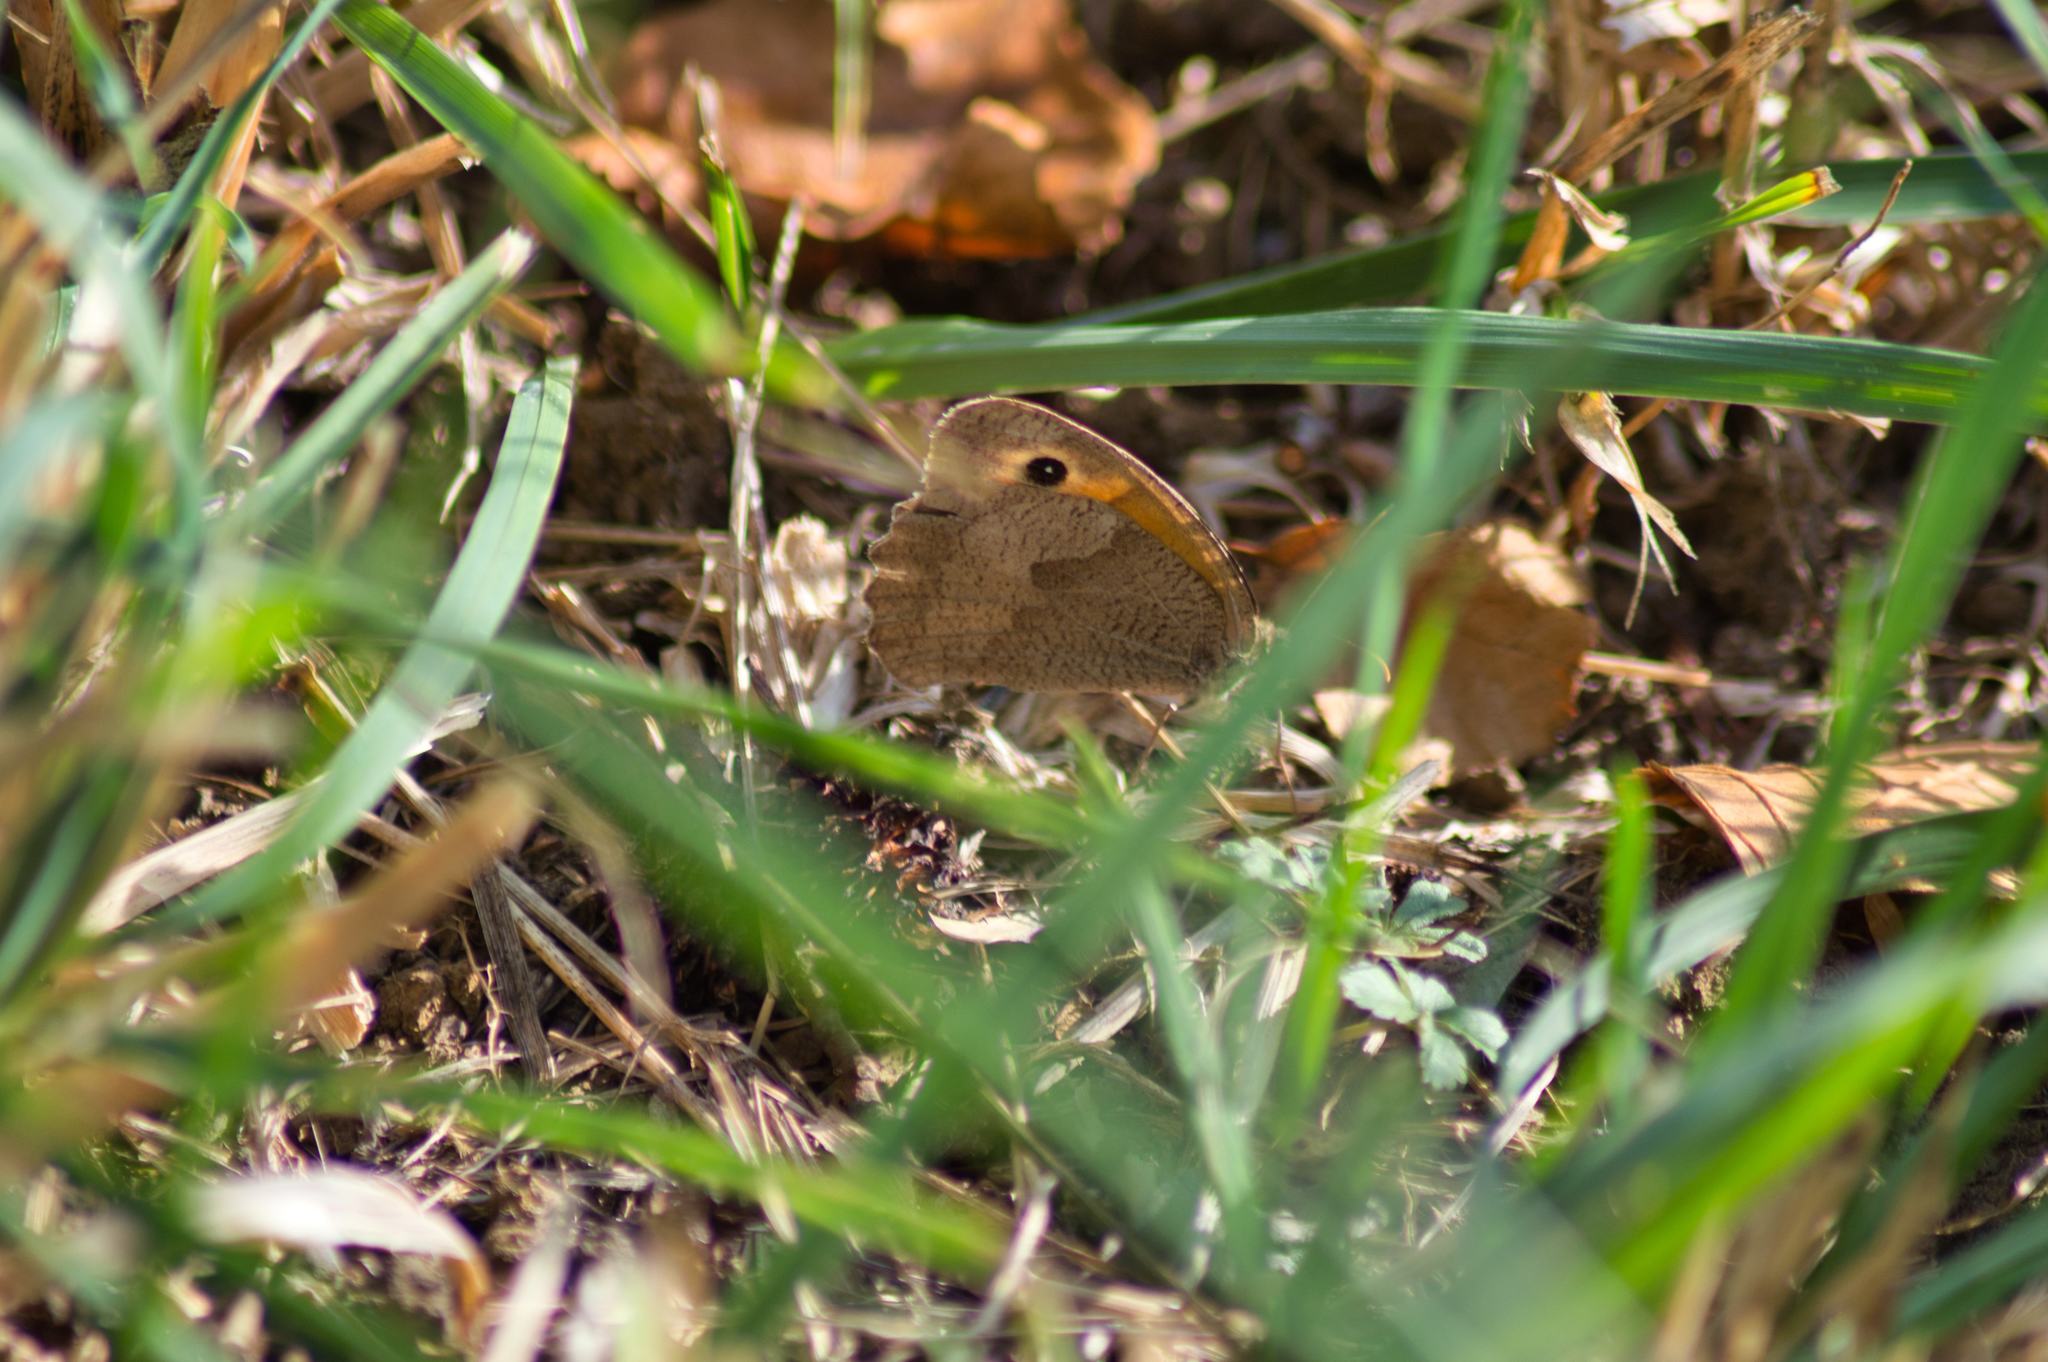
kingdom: Animalia
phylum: Arthropoda
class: Insecta
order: Lepidoptera
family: Nymphalidae
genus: Maniola
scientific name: Maniola jurtina
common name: Meadow brown
